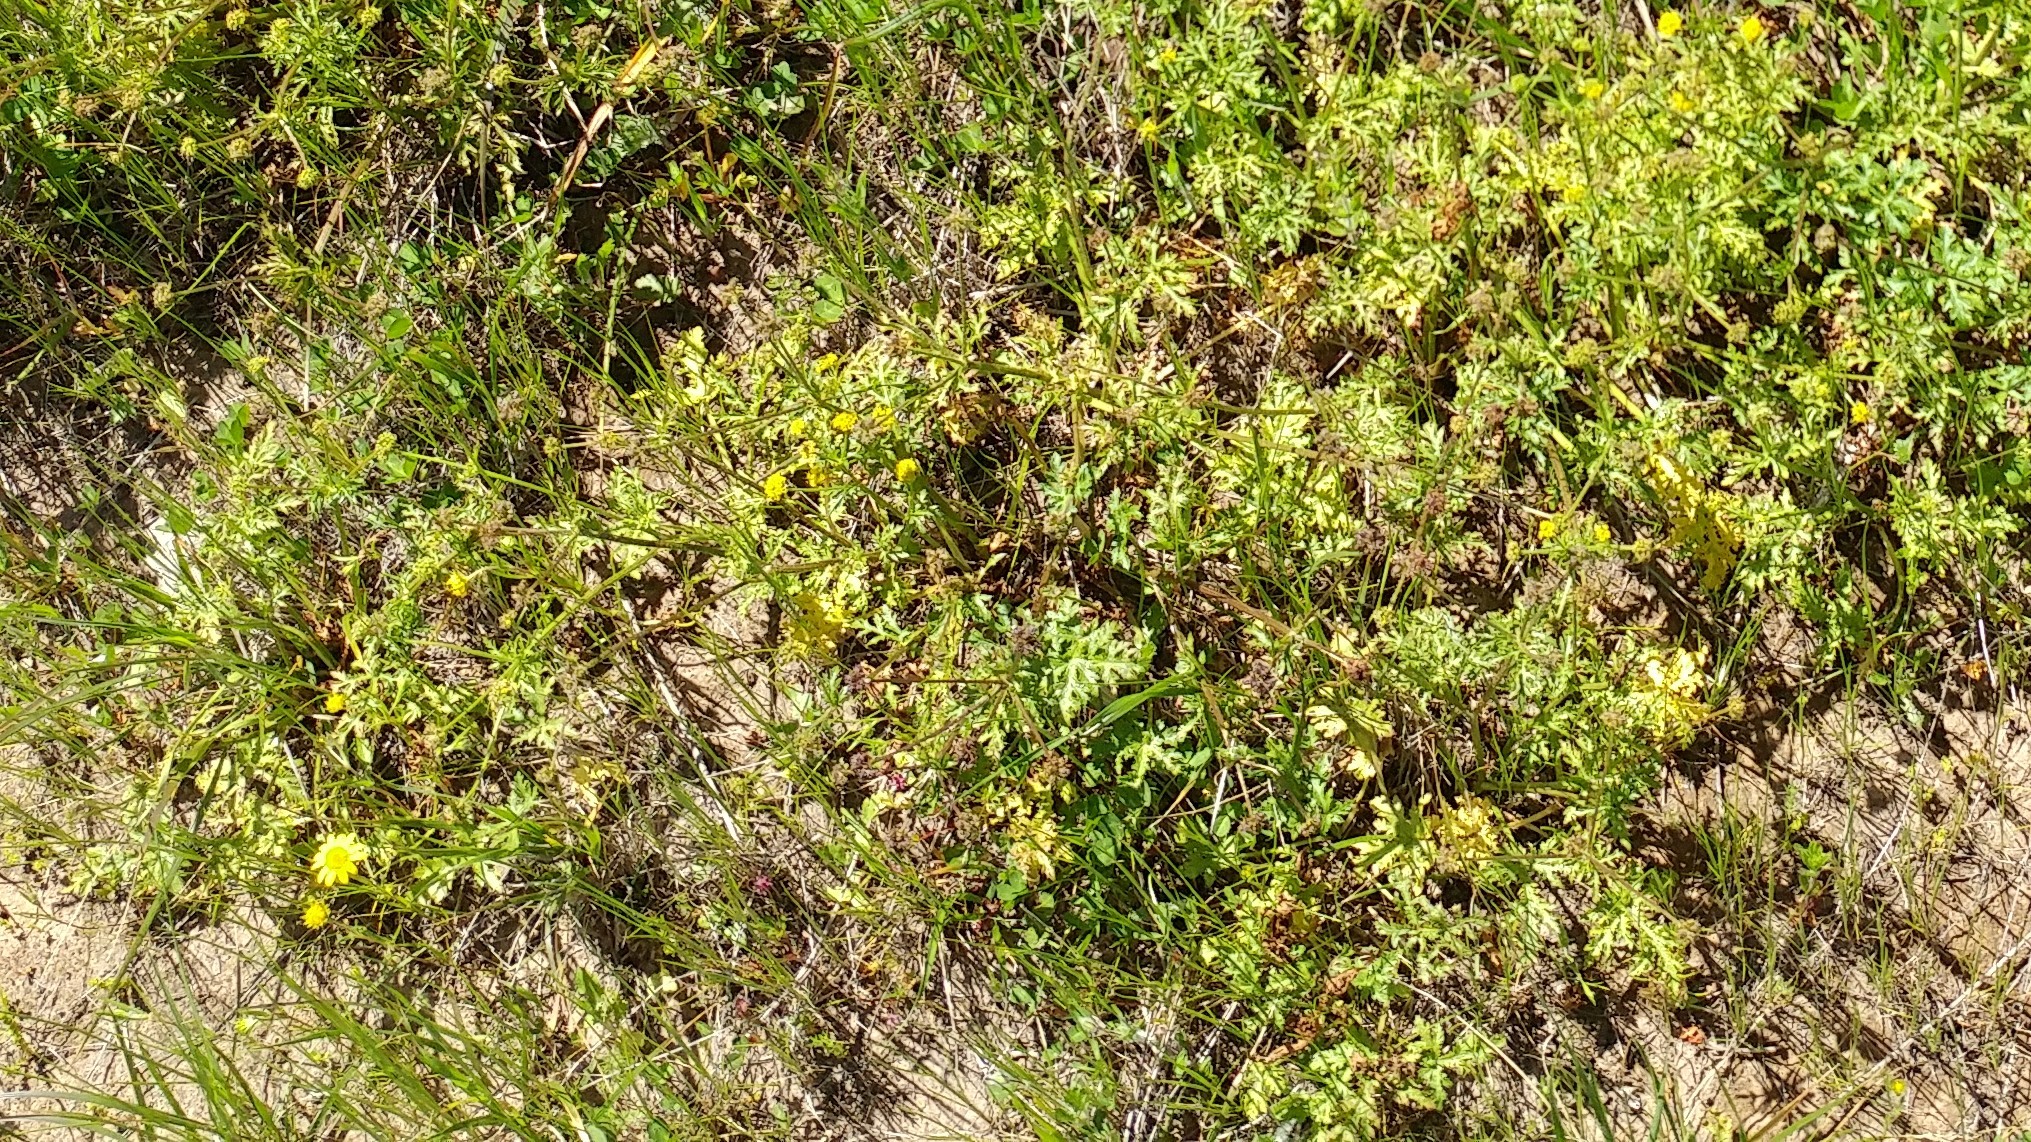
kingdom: Plantae
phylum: Tracheophyta
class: Magnoliopsida
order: Apiales
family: Apiaceae
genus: Sanicula
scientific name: Sanicula arguta
